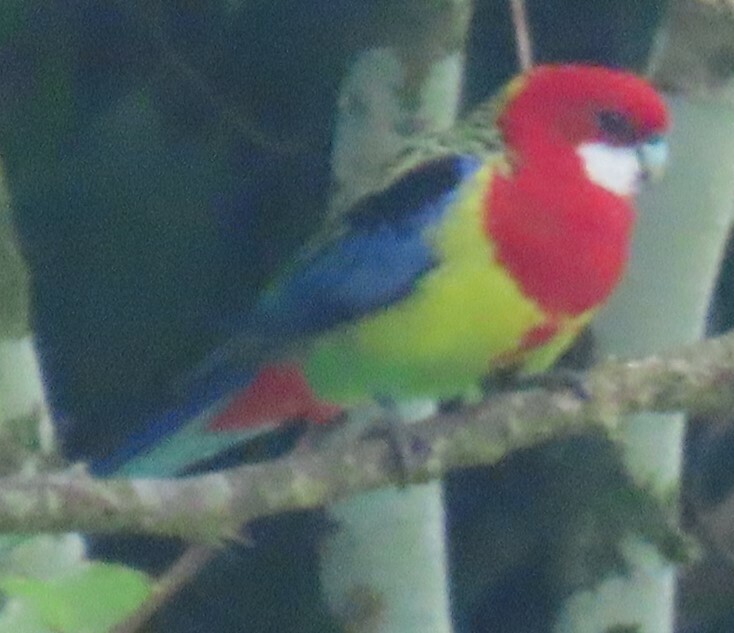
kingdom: Animalia
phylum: Chordata
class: Aves
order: Psittaciformes
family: Psittacidae
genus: Platycercus
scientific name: Platycercus eximius
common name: Eastern rosella
